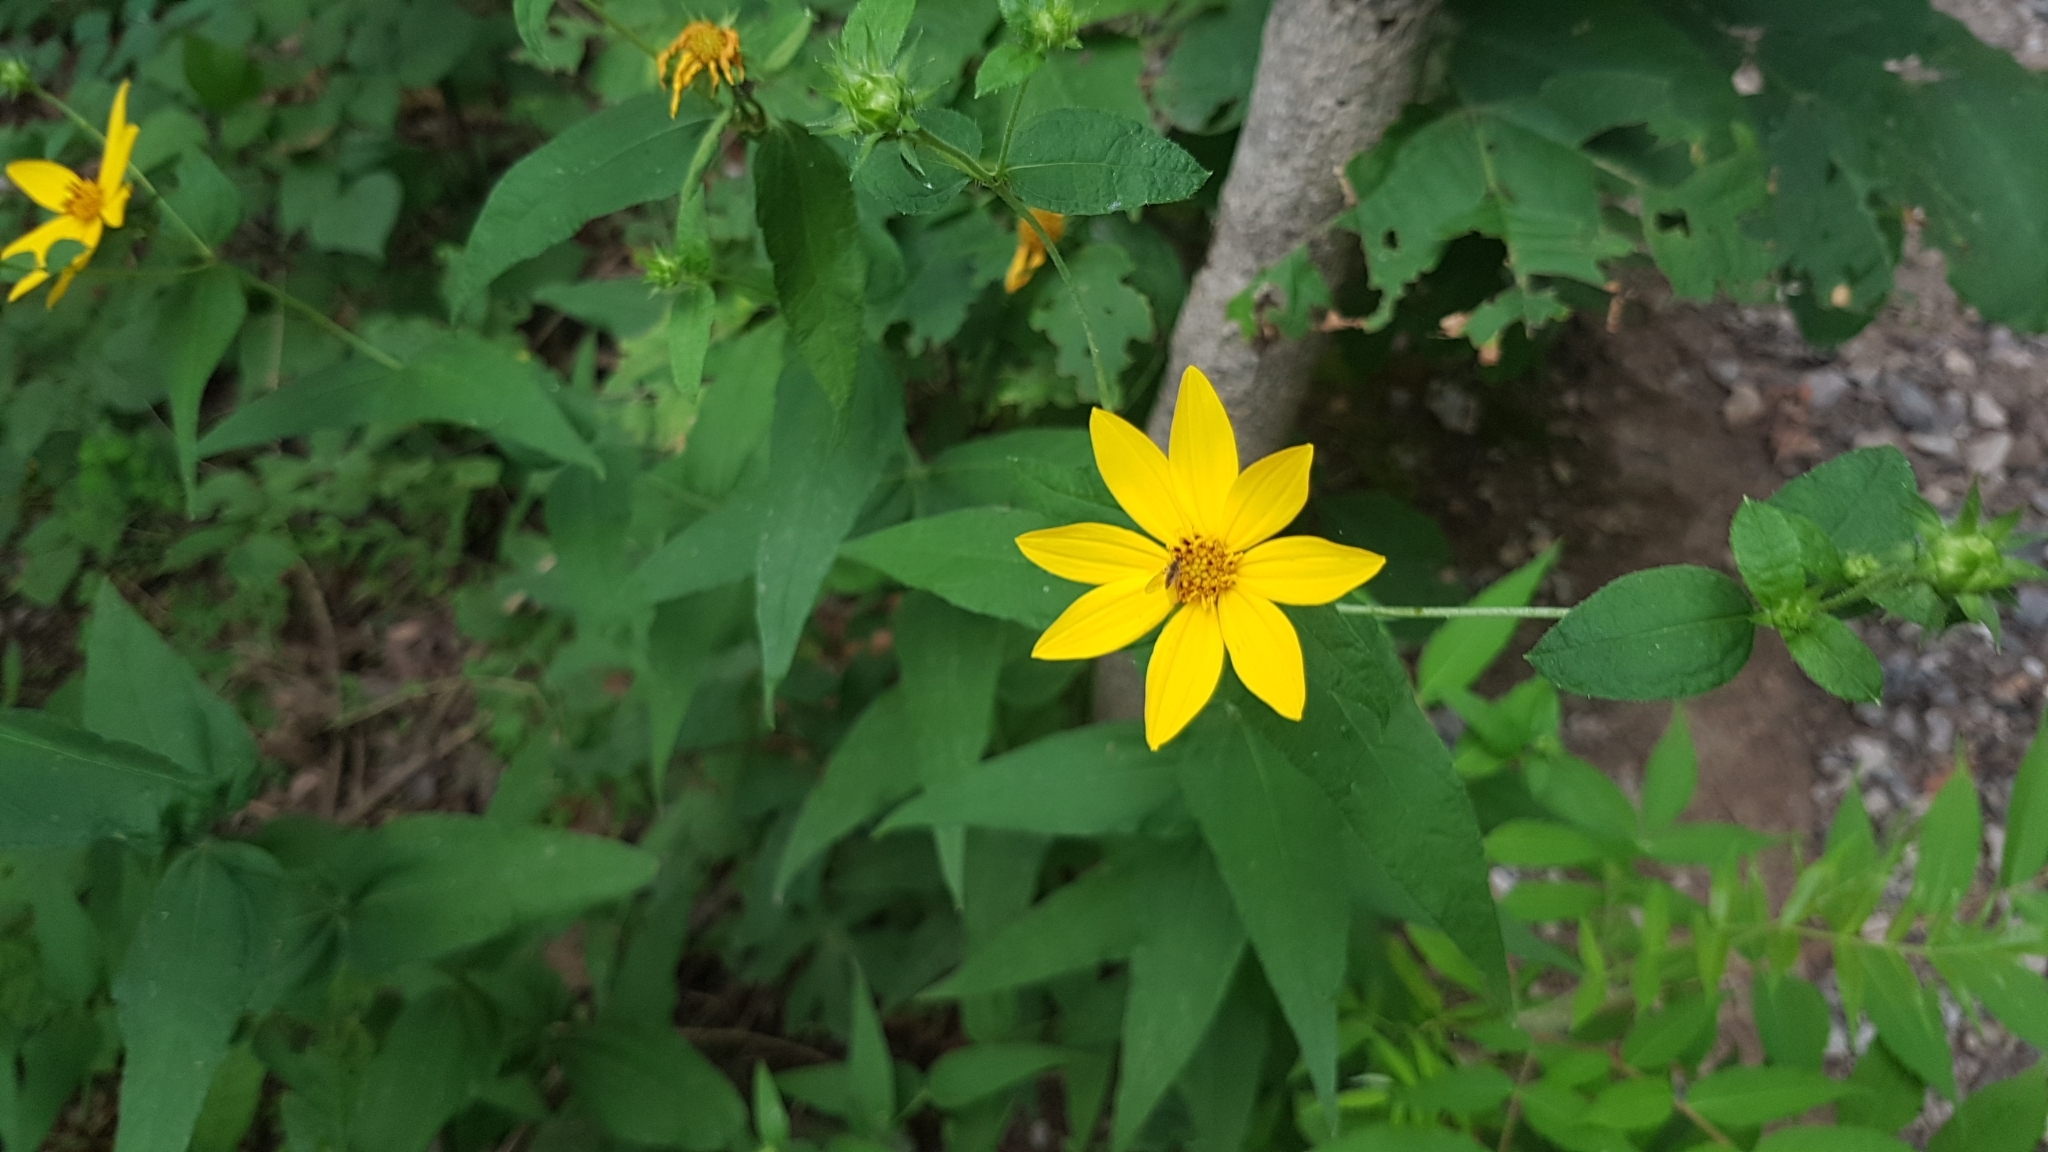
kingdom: Plantae
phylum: Tracheophyta
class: Magnoliopsida
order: Asterales
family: Asteraceae
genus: Helianthus
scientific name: Helianthus divaricatus
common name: Divergent sunflower
